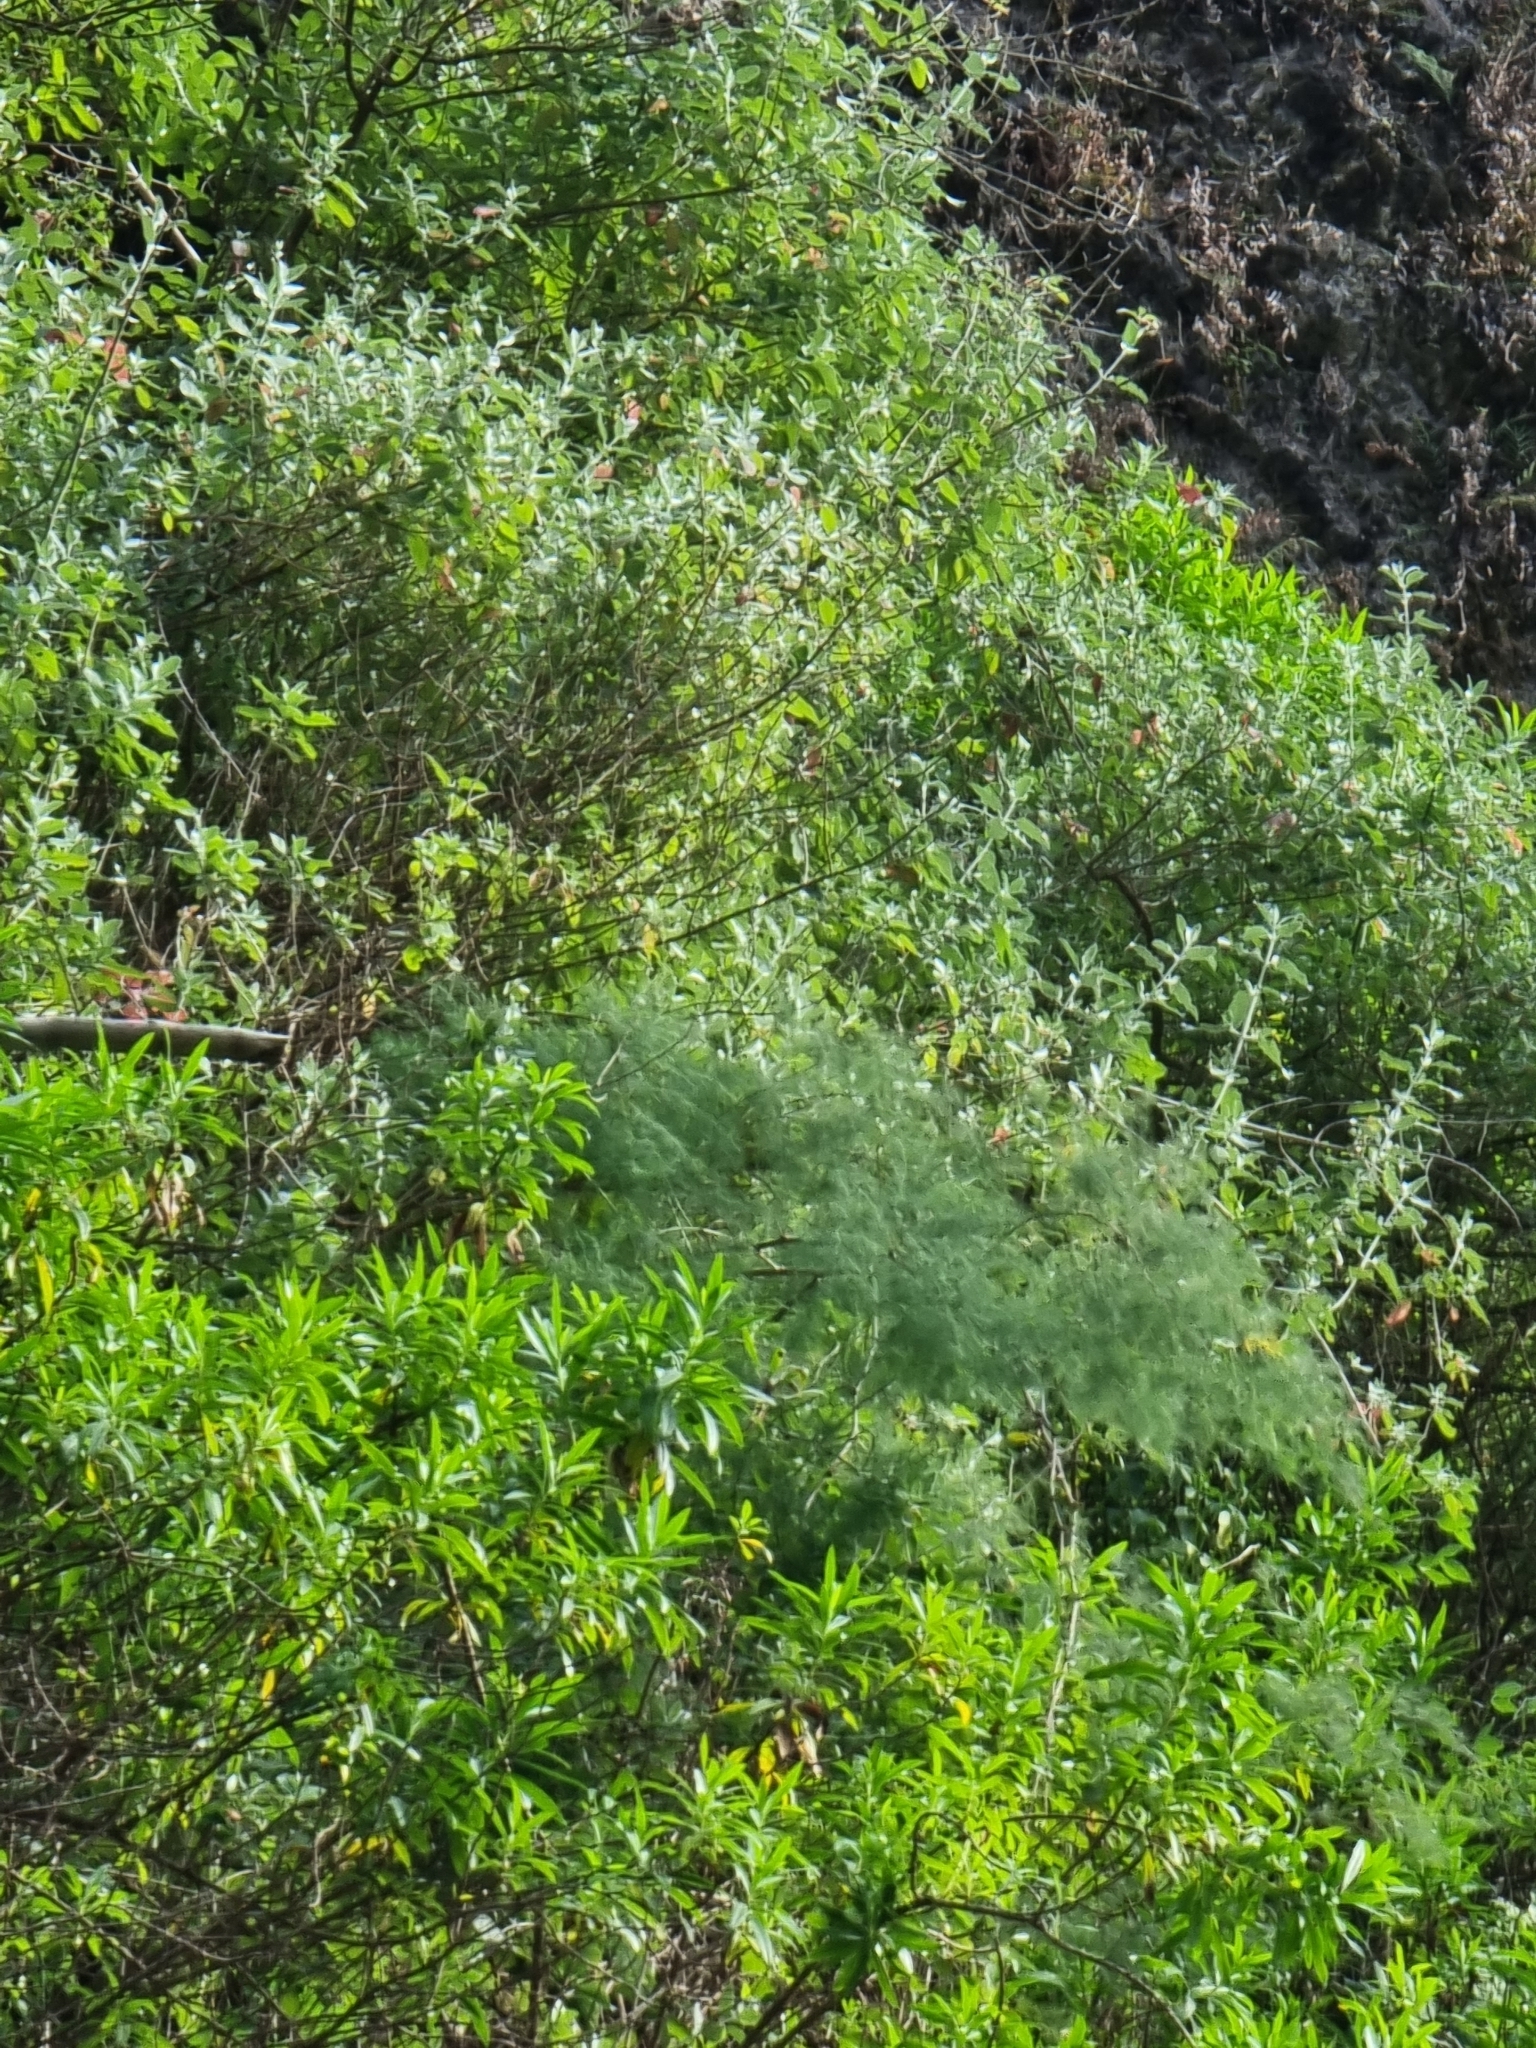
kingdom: Plantae
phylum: Tracheophyta
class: Liliopsida
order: Asparagales
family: Asparagaceae
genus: Asparagus
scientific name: Asparagus umbellatus
